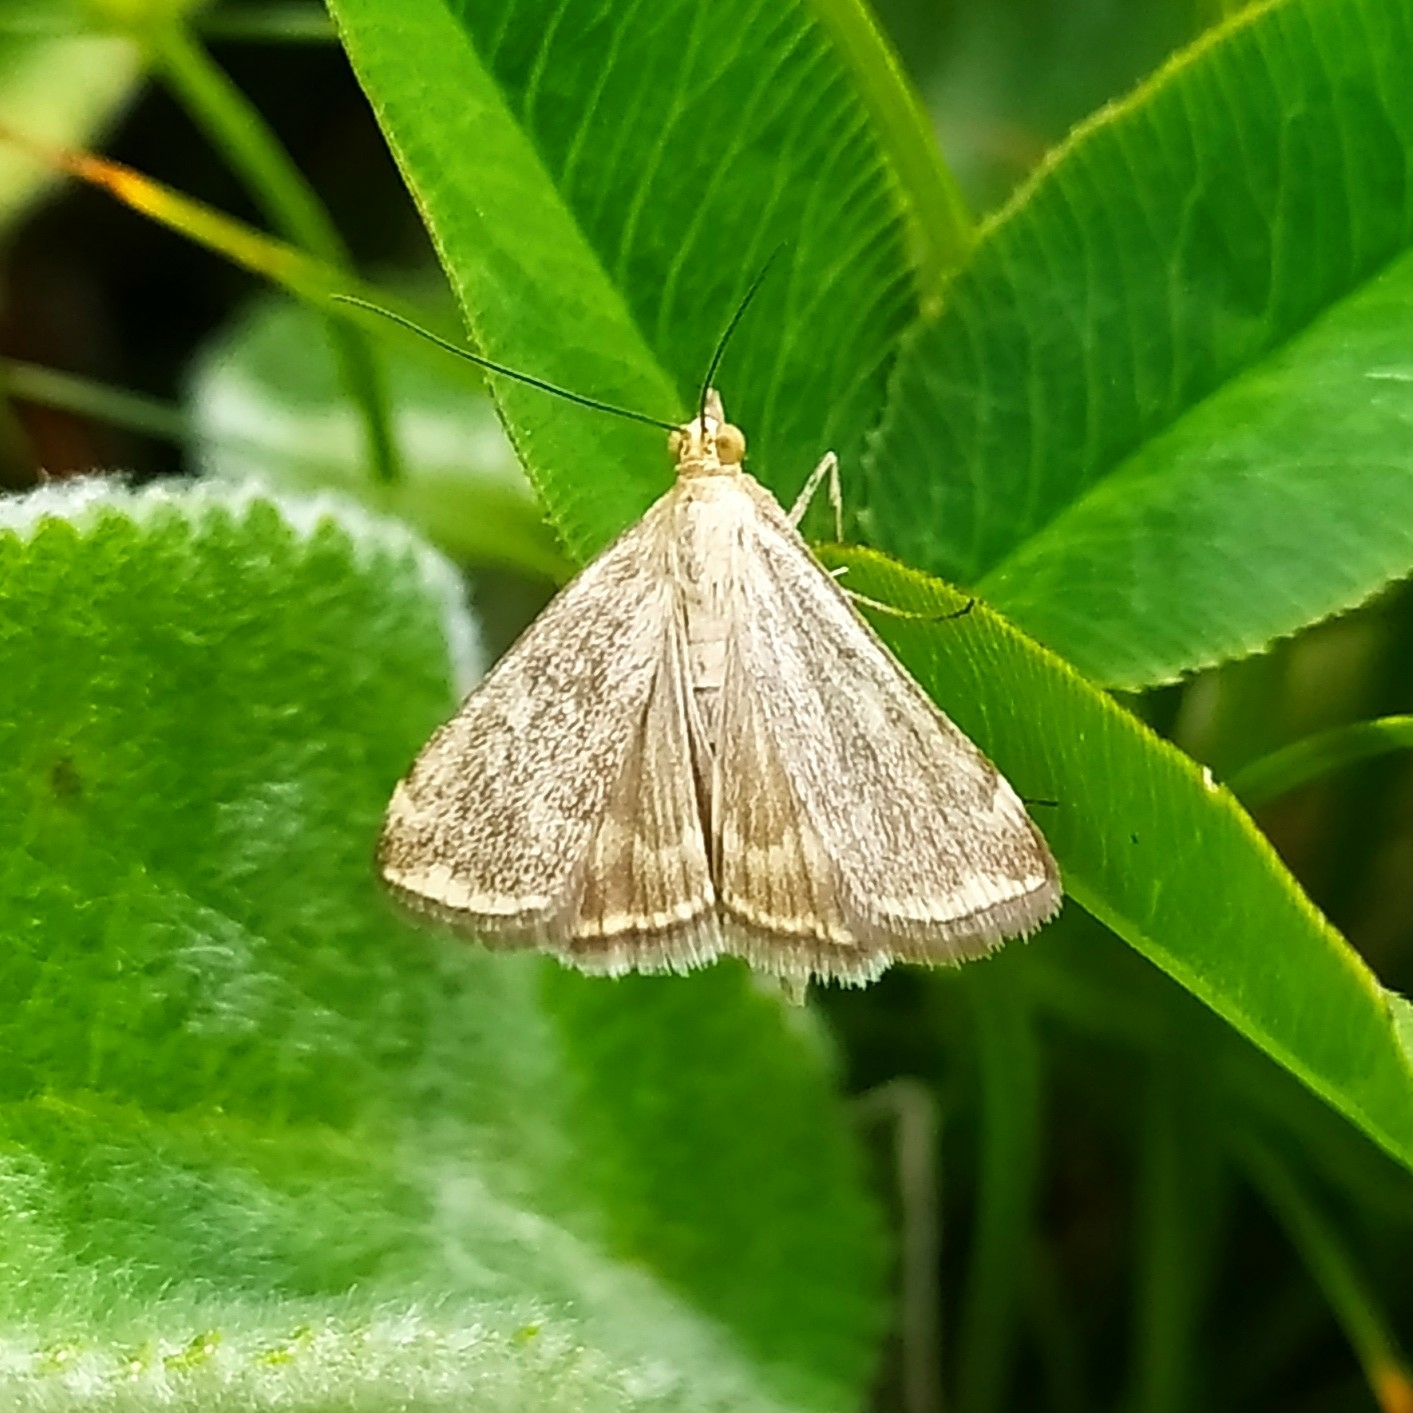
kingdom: Animalia
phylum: Arthropoda
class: Insecta
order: Lepidoptera
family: Crambidae
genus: Loxostege
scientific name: Loxostege sticticalis
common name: Crambid moth
